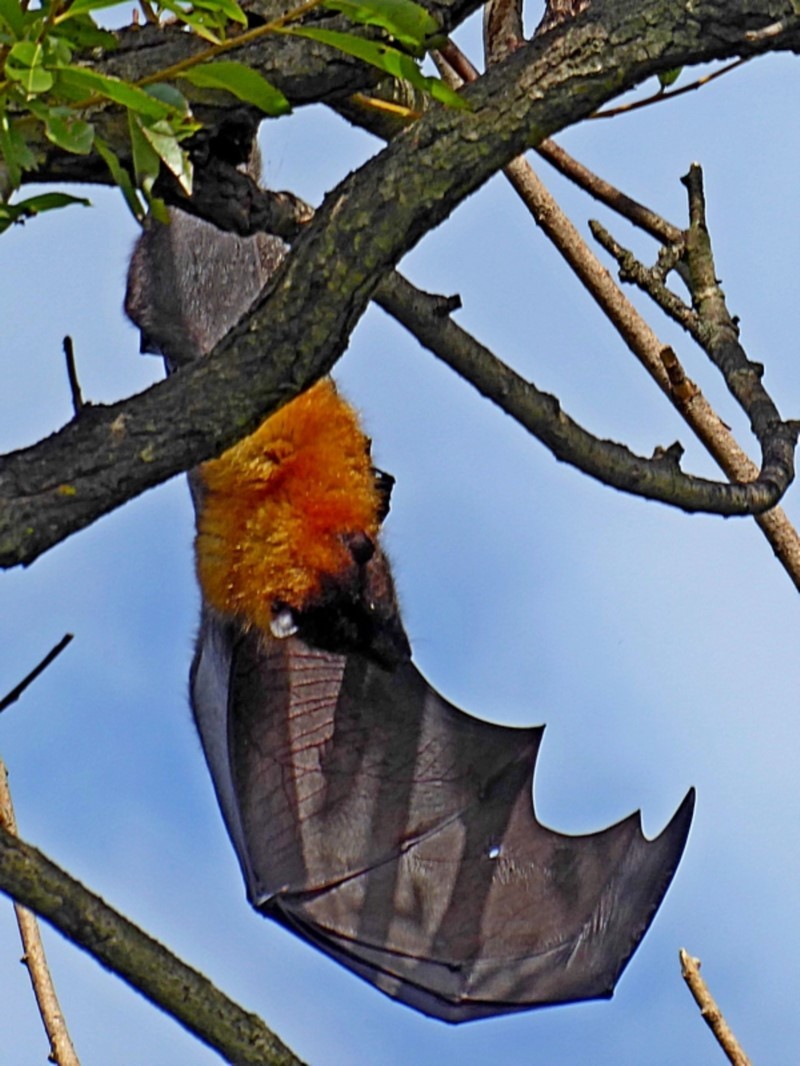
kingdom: Animalia
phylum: Chordata
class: Mammalia
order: Chiroptera
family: Pteropodidae
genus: Pteropus
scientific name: Pteropus poliocephalus
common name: Gray-headed flying fox
